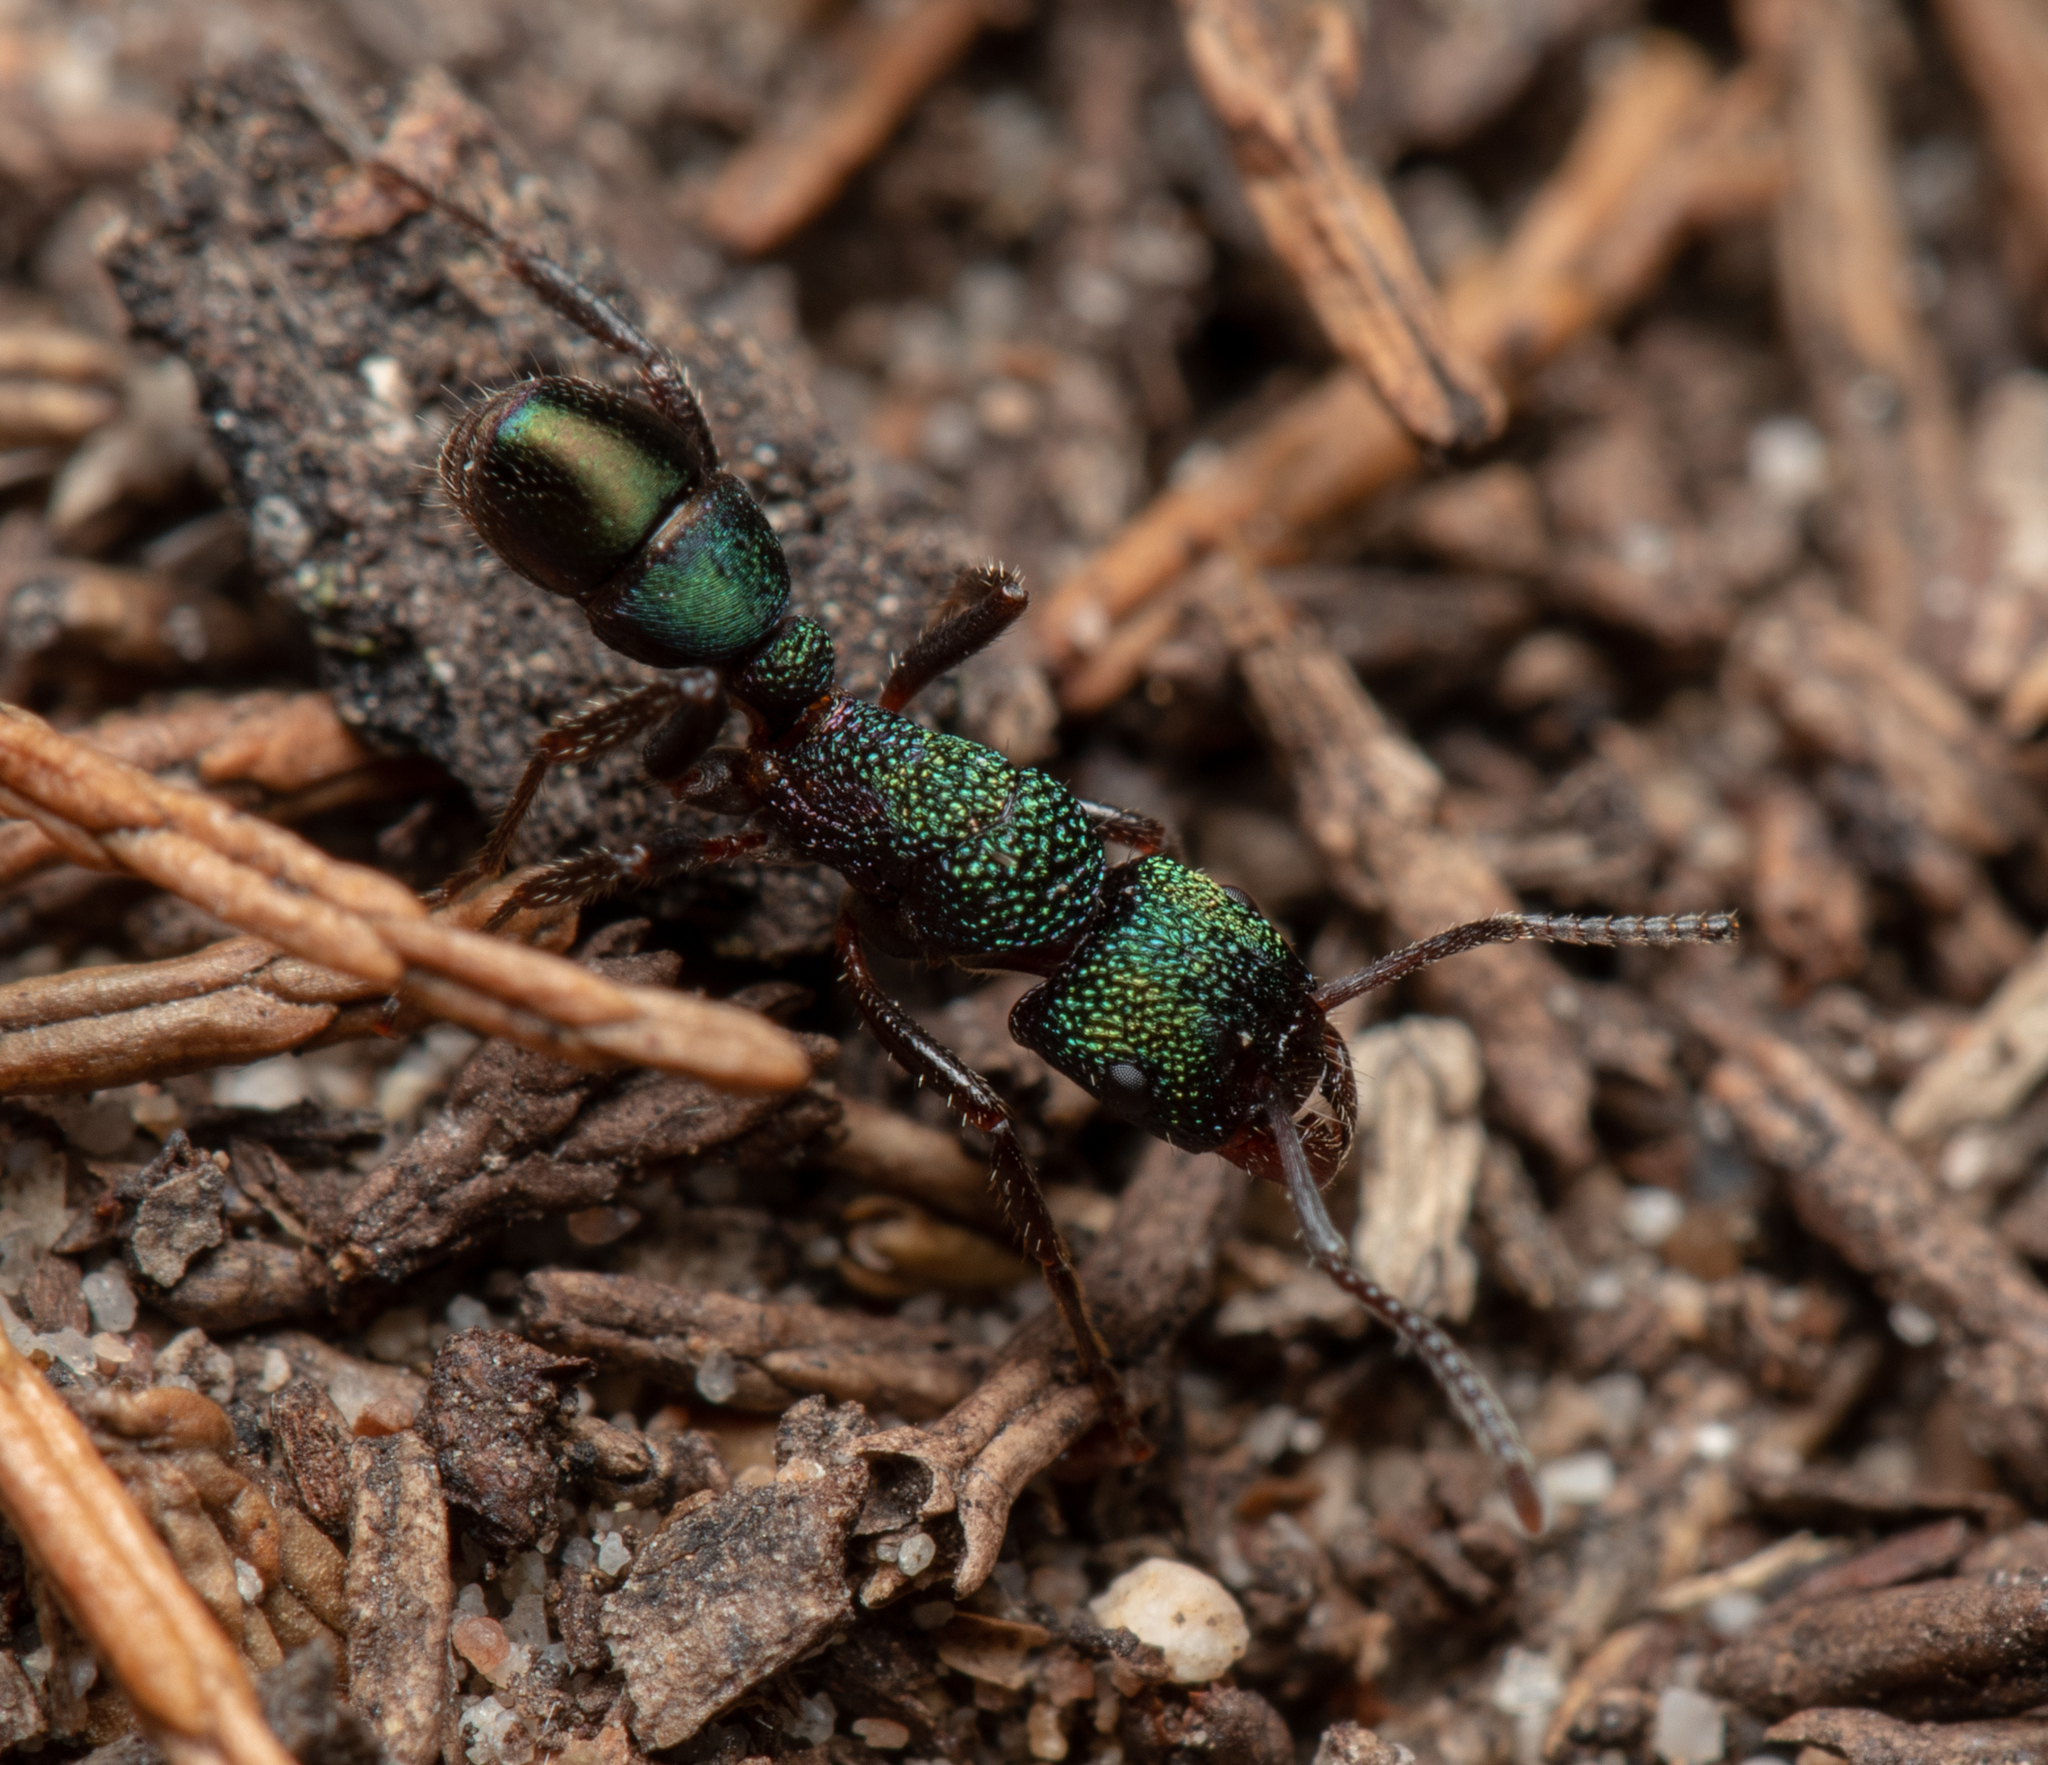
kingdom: Animalia
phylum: Arthropoda
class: Insecta
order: Hymenoptera
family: Formicidae
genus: Rhytidoponera
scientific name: Rhytidoponera metallica
